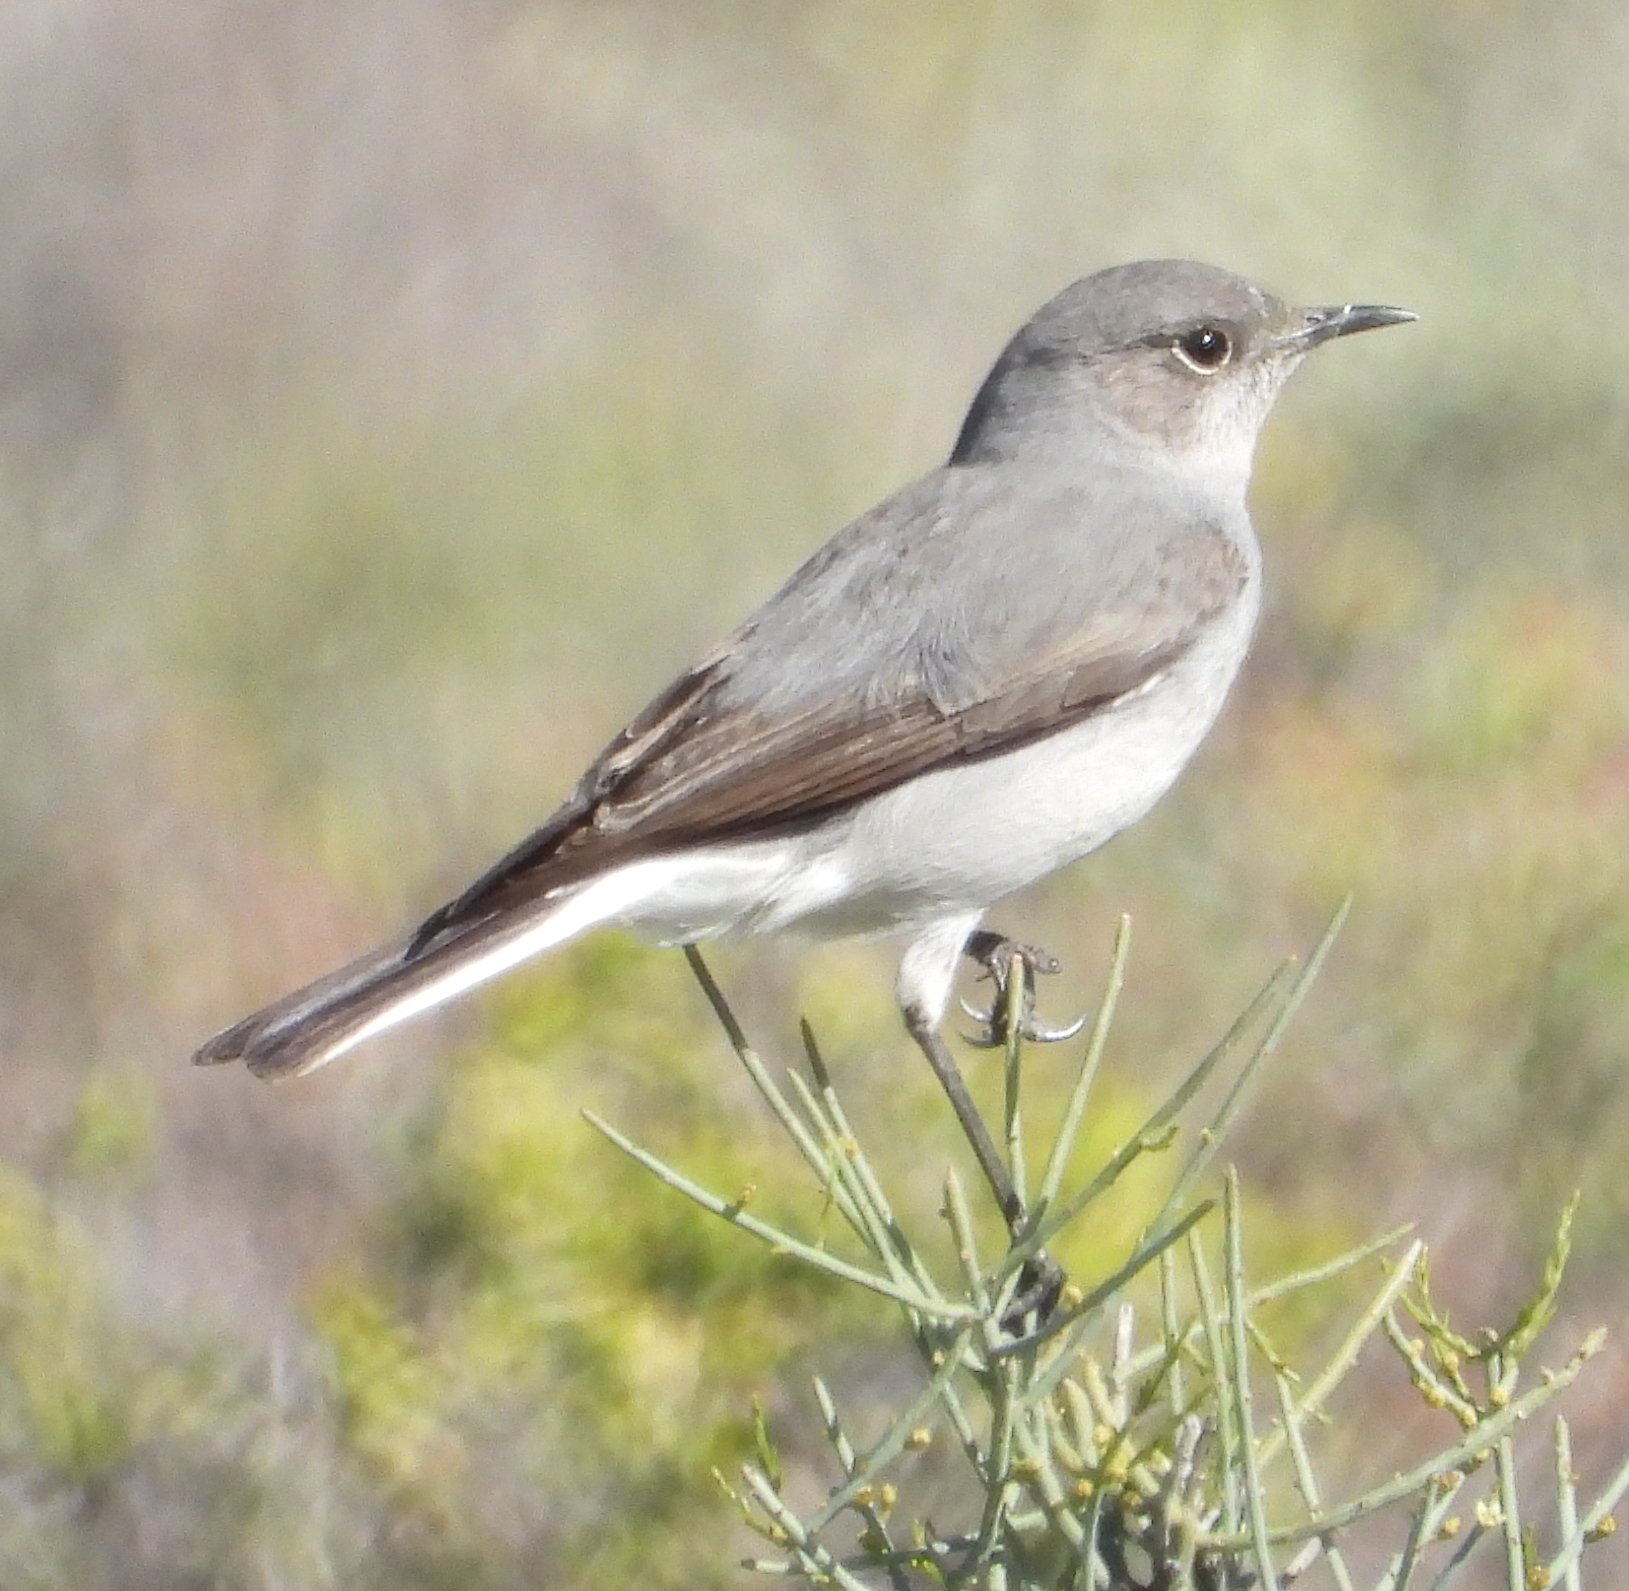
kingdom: Animalia
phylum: Chordata
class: Aves
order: Passeriformes
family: Muscicapidae
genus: Emarginata
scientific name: Emarginata schlegelii
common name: Karoo chat
